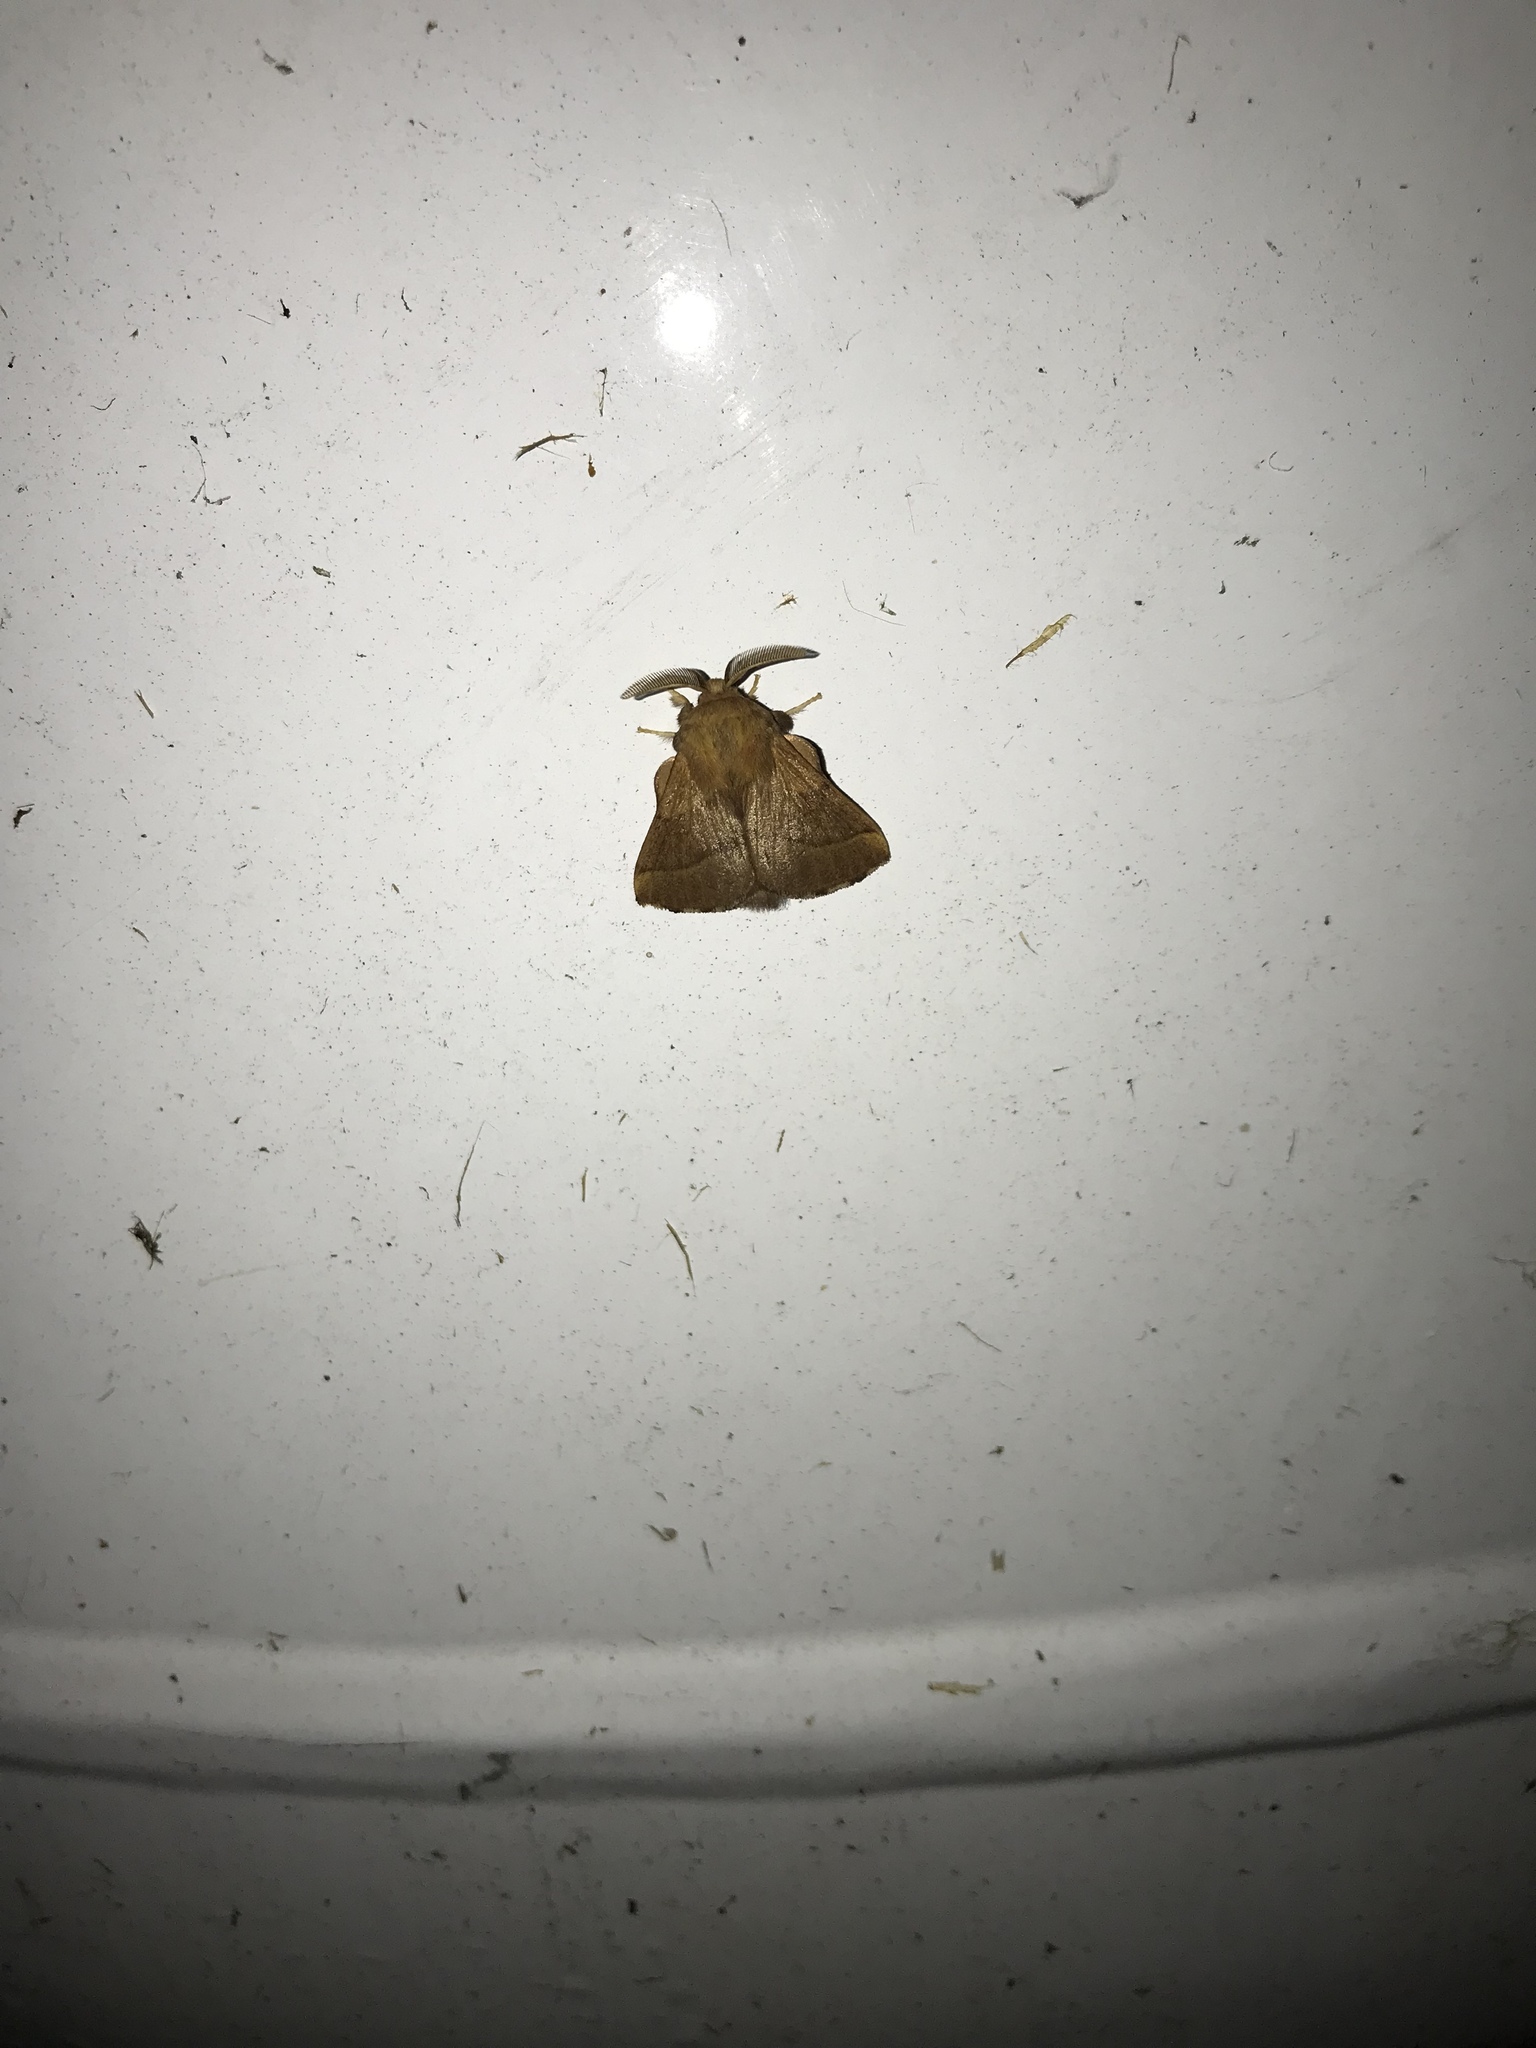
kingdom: Animalia
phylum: Arthropoda
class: Insecta
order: Lepidoptera
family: Lasiocampidae
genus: Malacosoma
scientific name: Malacosoma disstria
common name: Forest tent caterpillar
